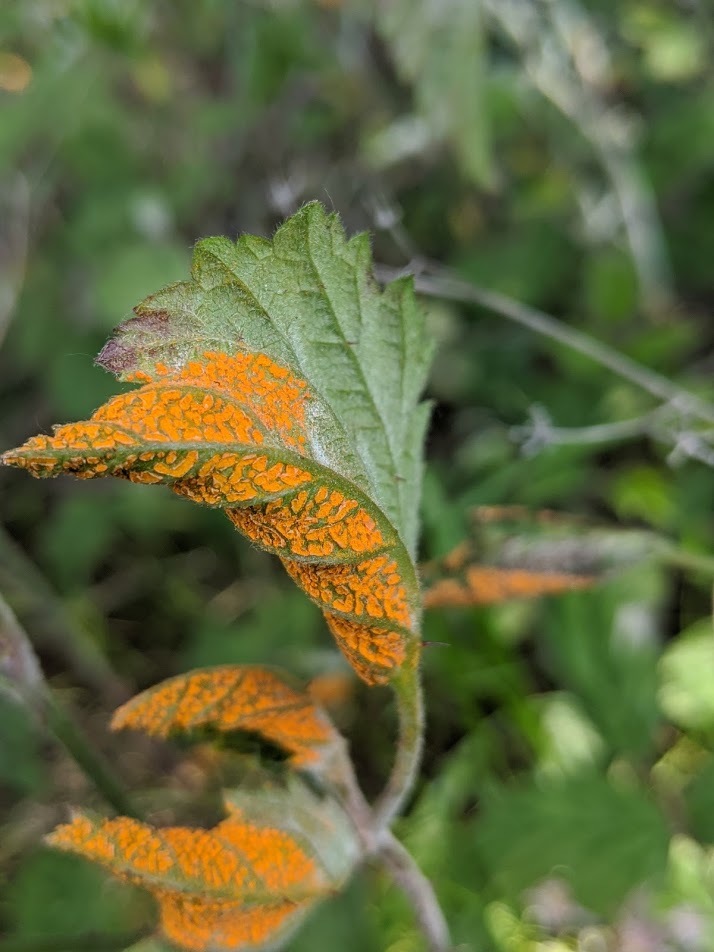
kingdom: Fungi
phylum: Basidiomycota
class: Pucciniomycetes
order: Pucciniales
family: Phragmidiaceae
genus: Arthuriomyces
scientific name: Arthuriomyces peckianus
